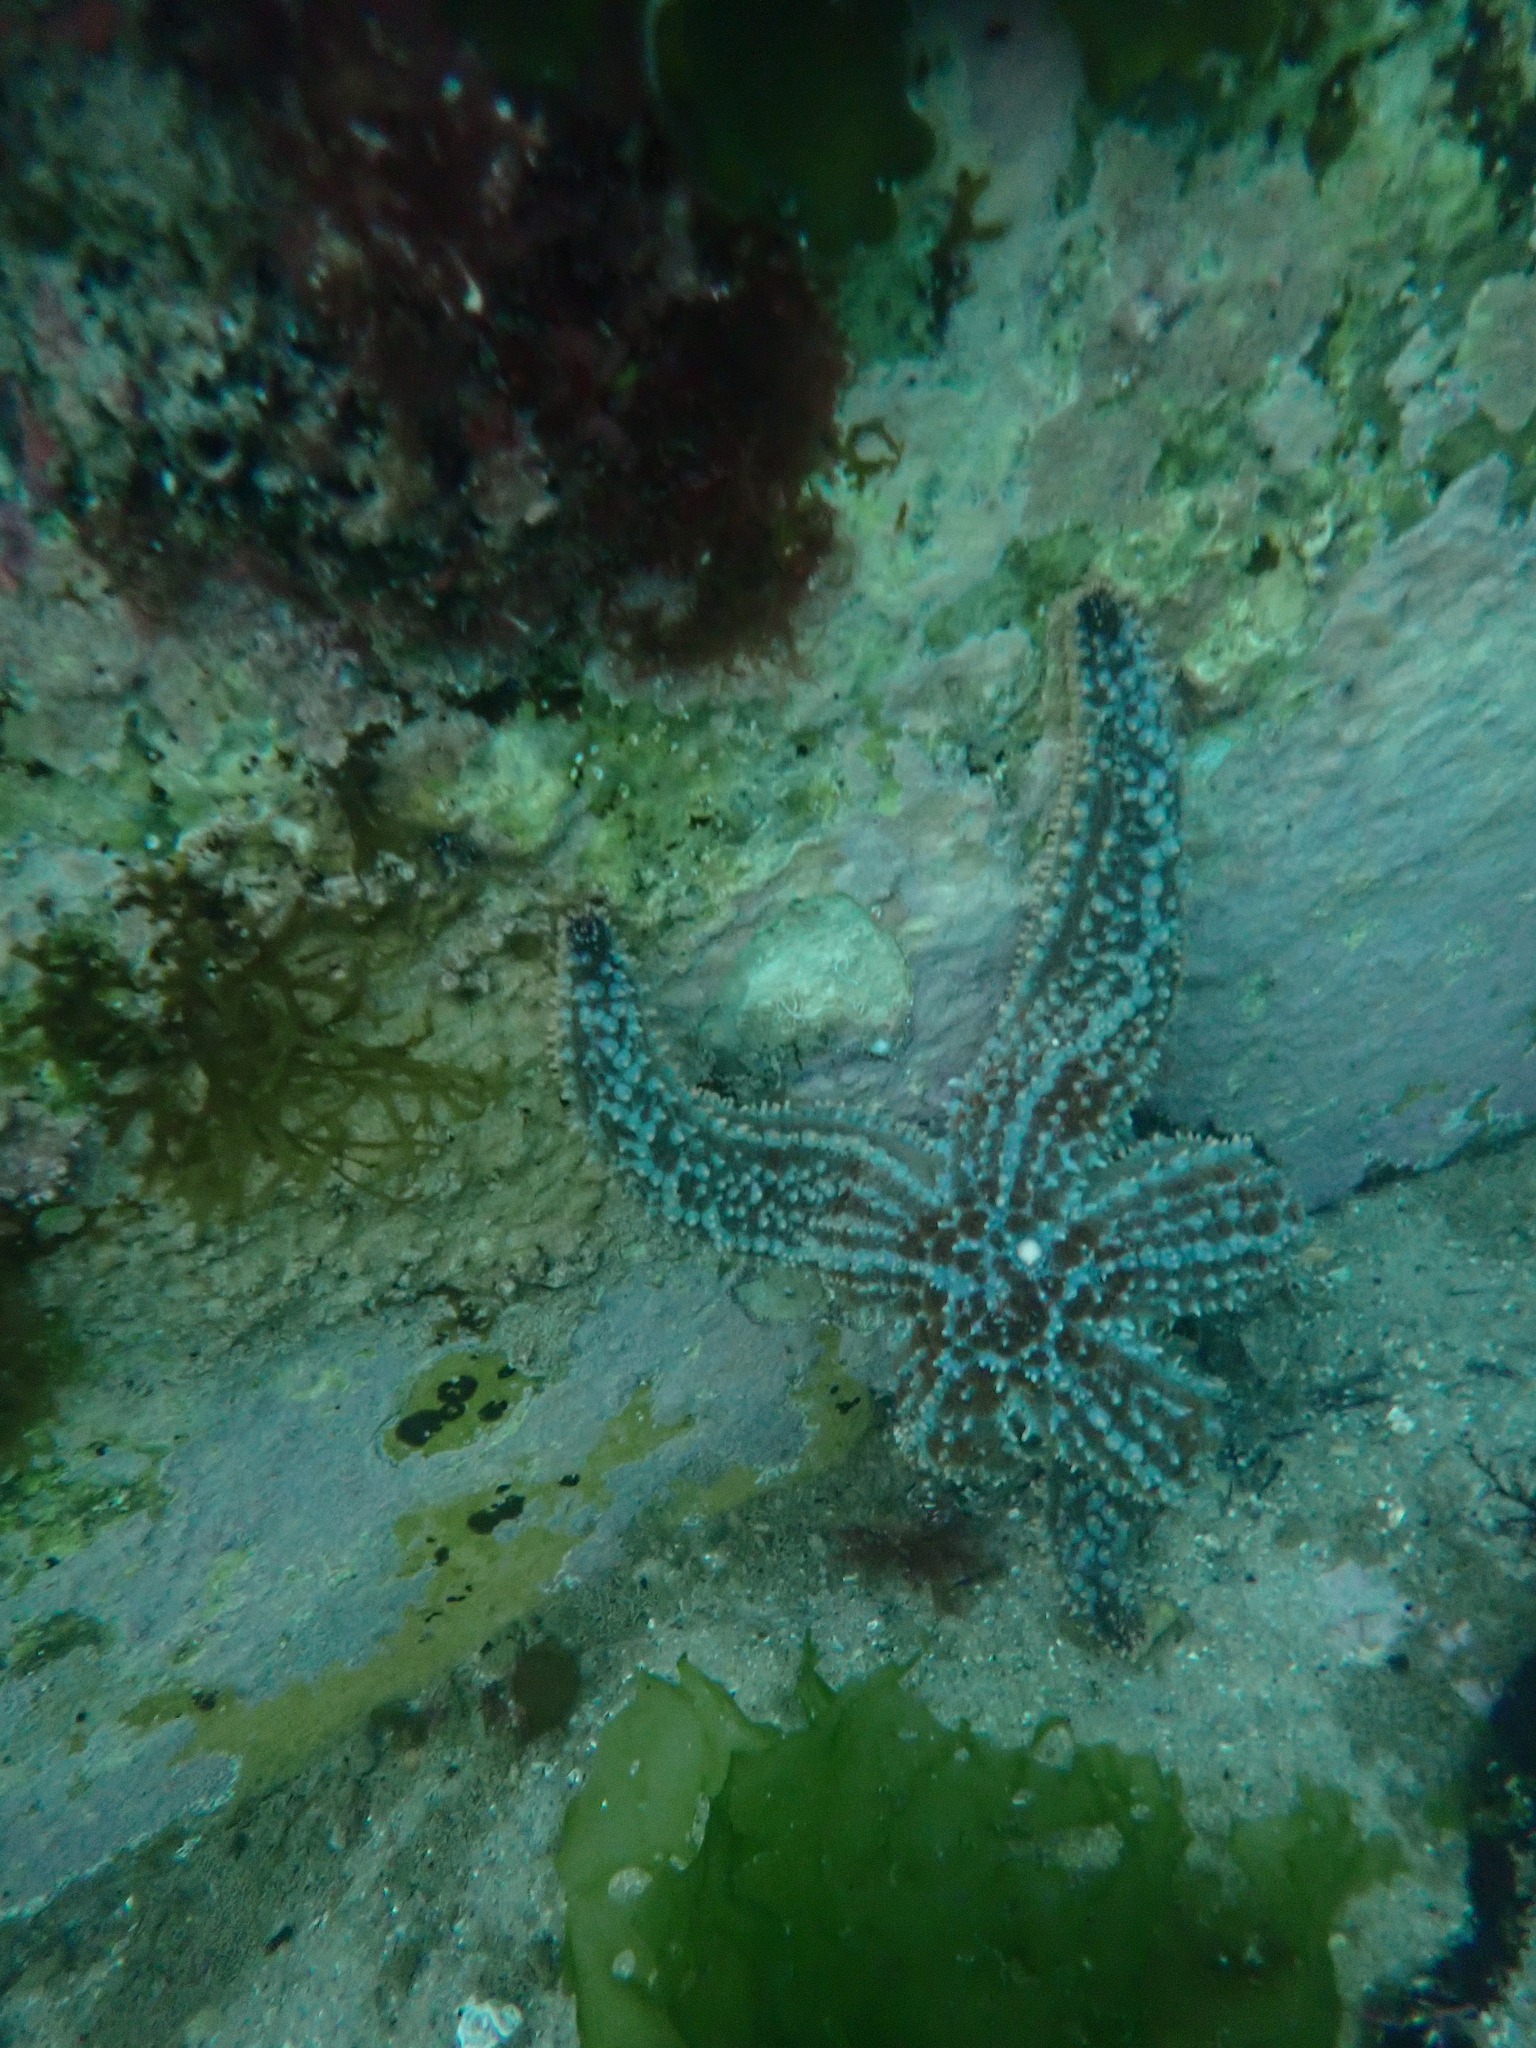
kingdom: Animalia
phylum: Echinodermata
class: Asteroidea
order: Forcipulatida
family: Asteriidae
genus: Marthasterias
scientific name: Marthasterias africana
